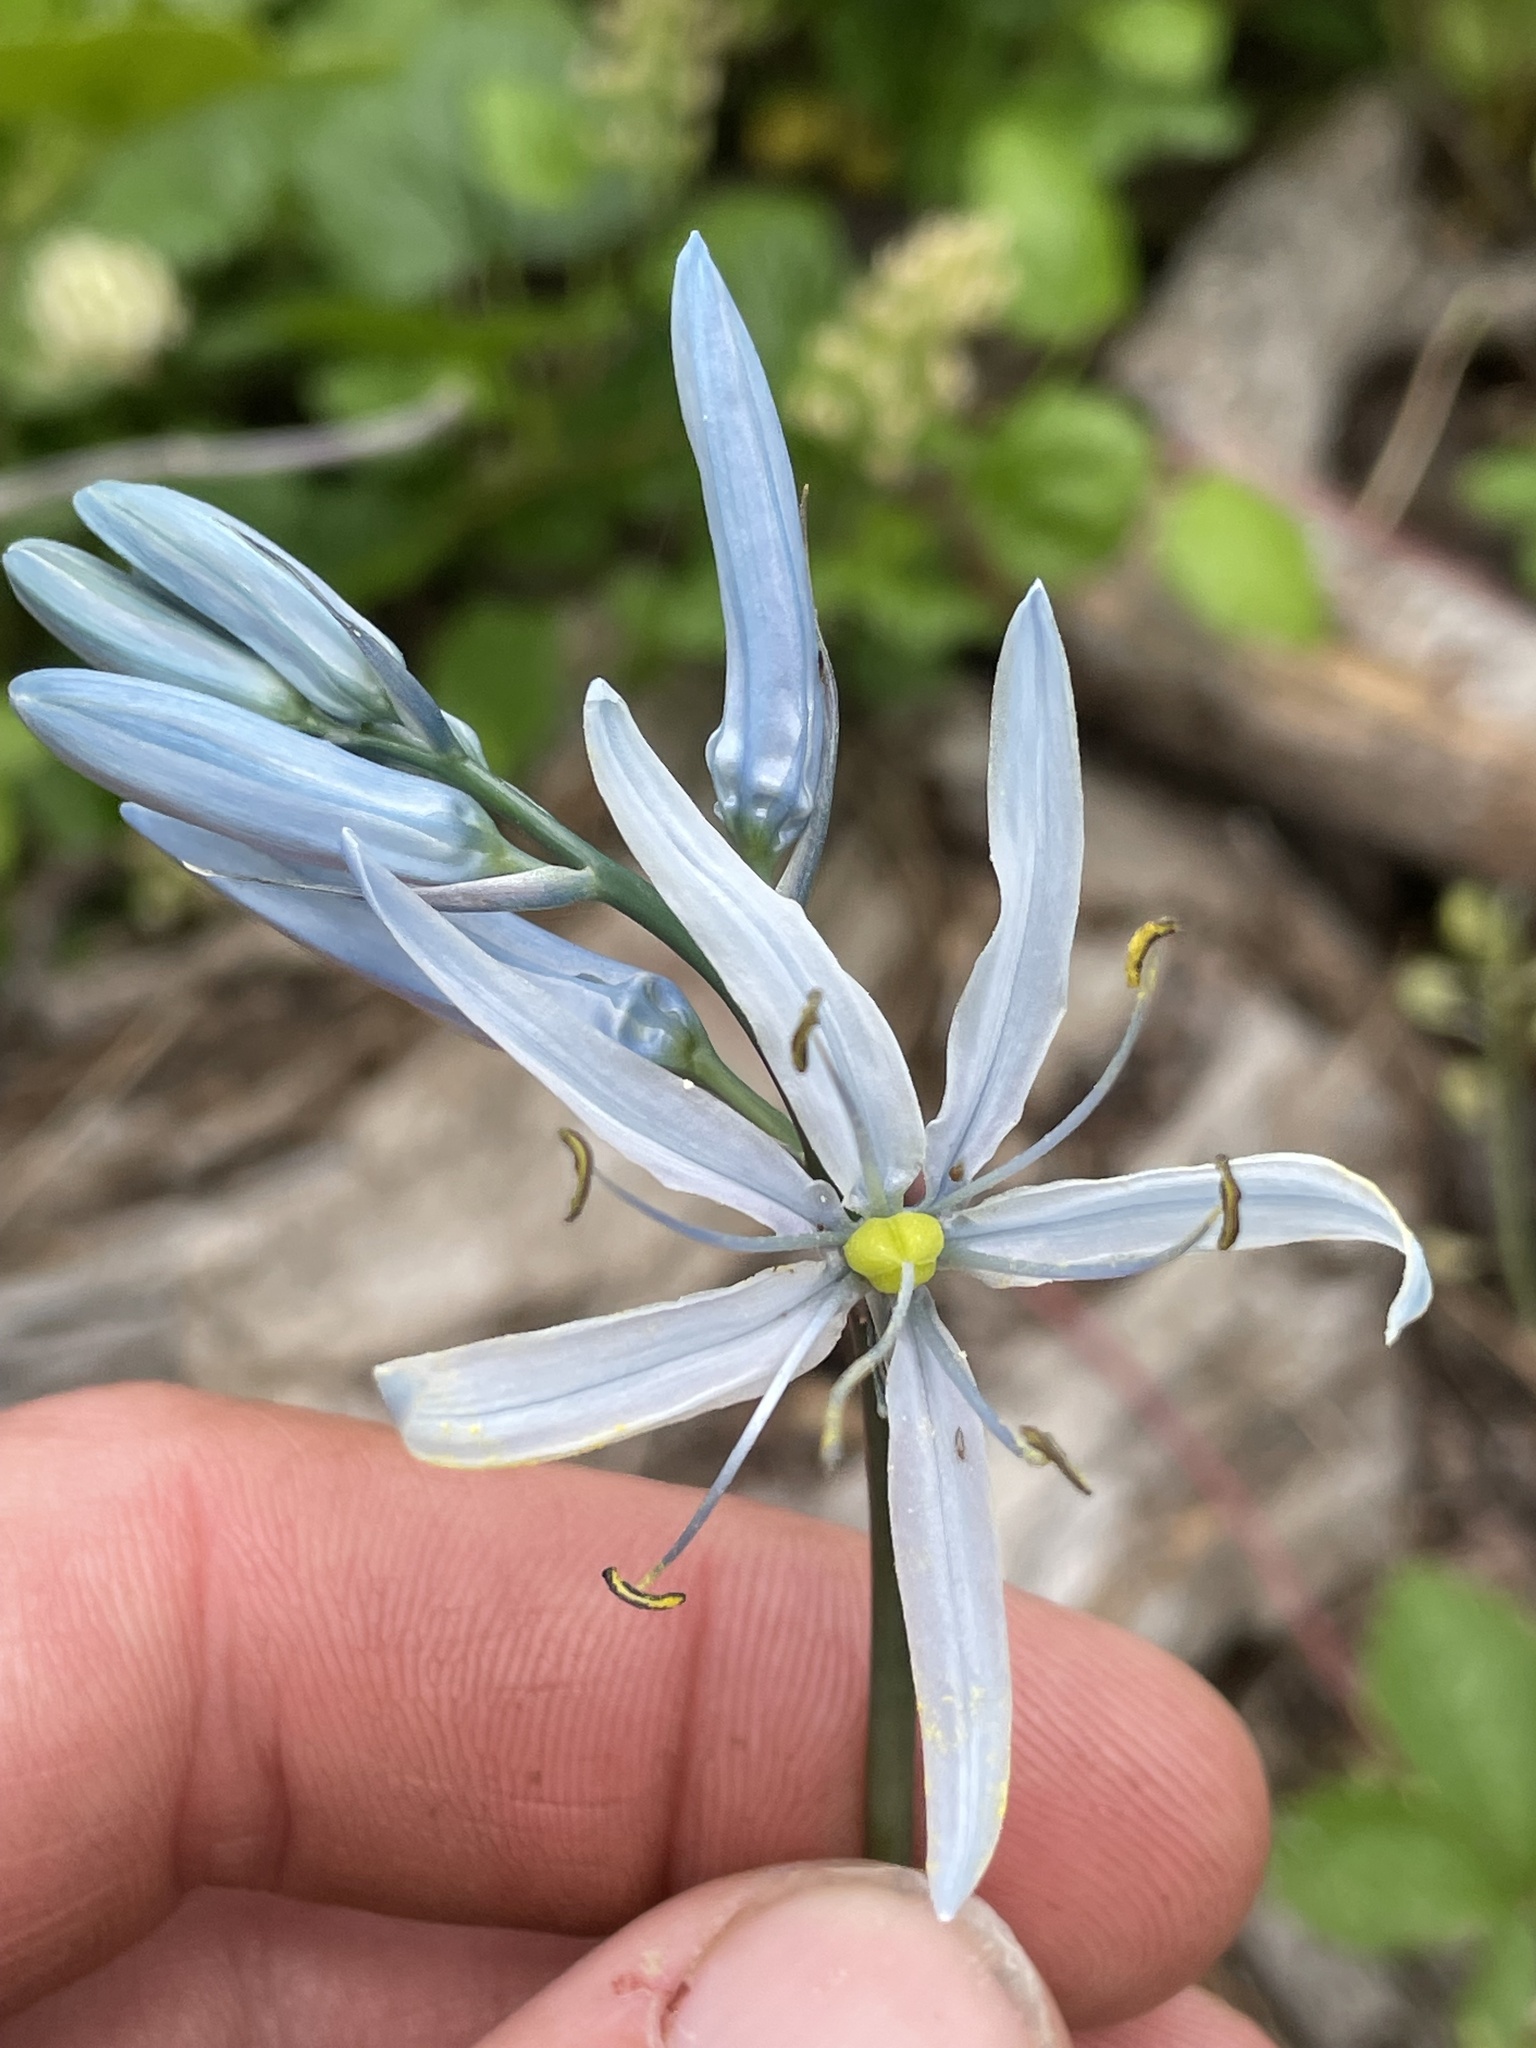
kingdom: Plantae
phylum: Tracheophyta
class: Liliopsida
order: Asparagales
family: Asparagaceae
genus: Camassia
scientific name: Camassia quamash
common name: Common camas
